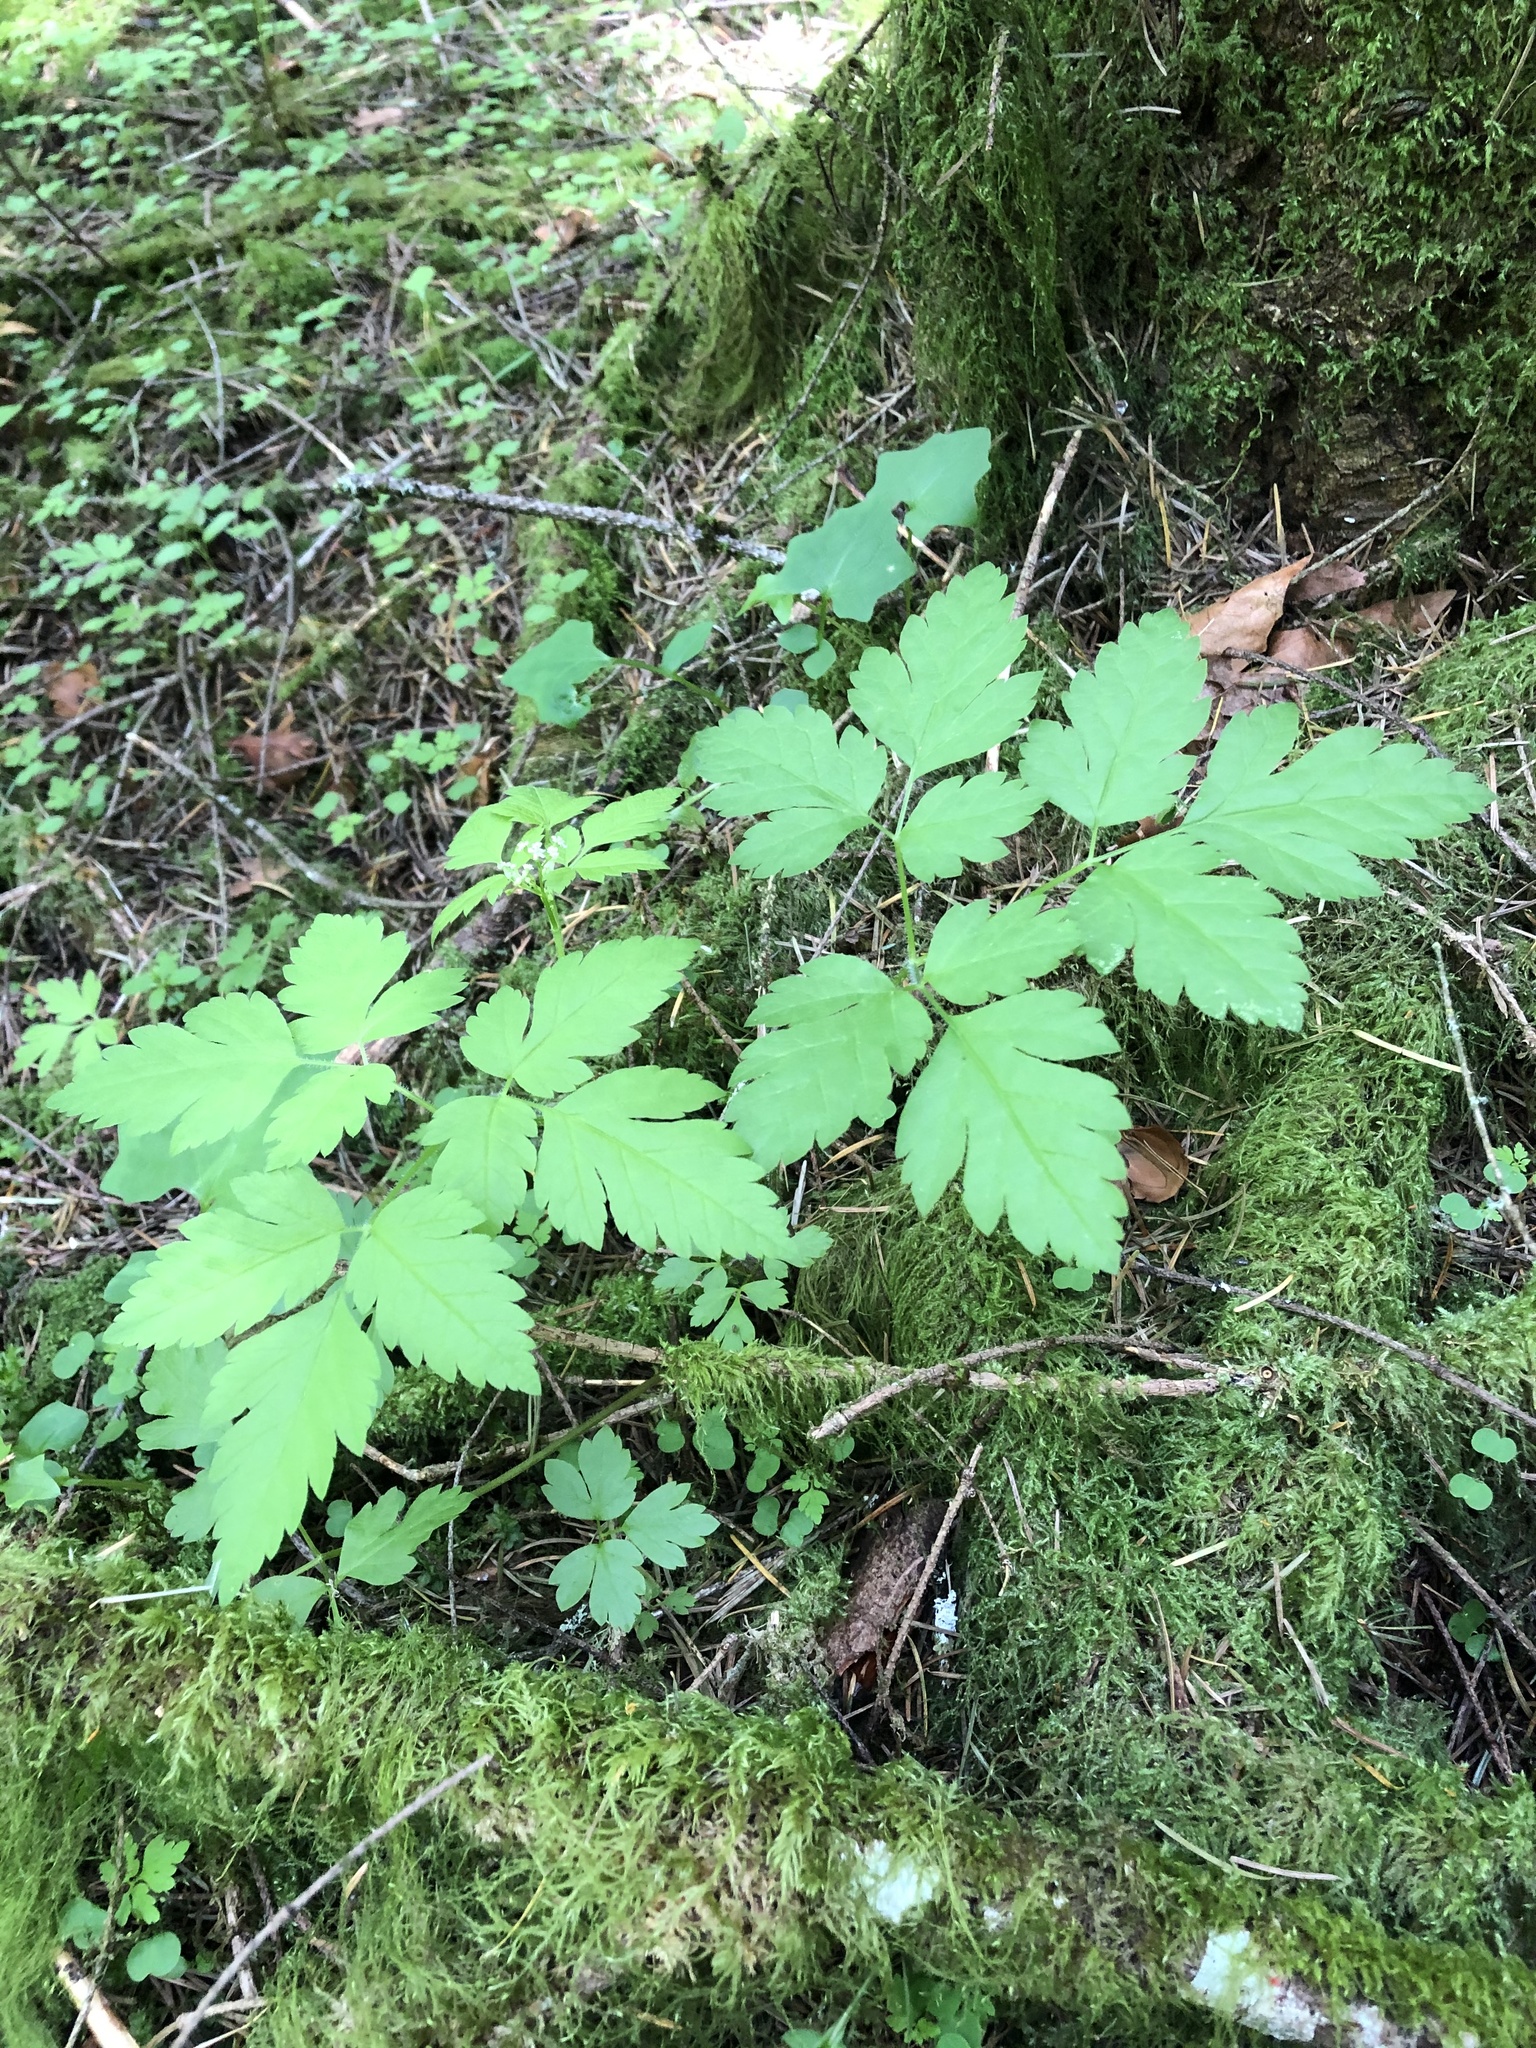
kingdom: Plantae
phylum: Tracheophyta
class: Magnoliopsida
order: Apiales
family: Apiaceae
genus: Osmorhiza
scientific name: Osmorhiza berteroi
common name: Mountain sweet cicely
